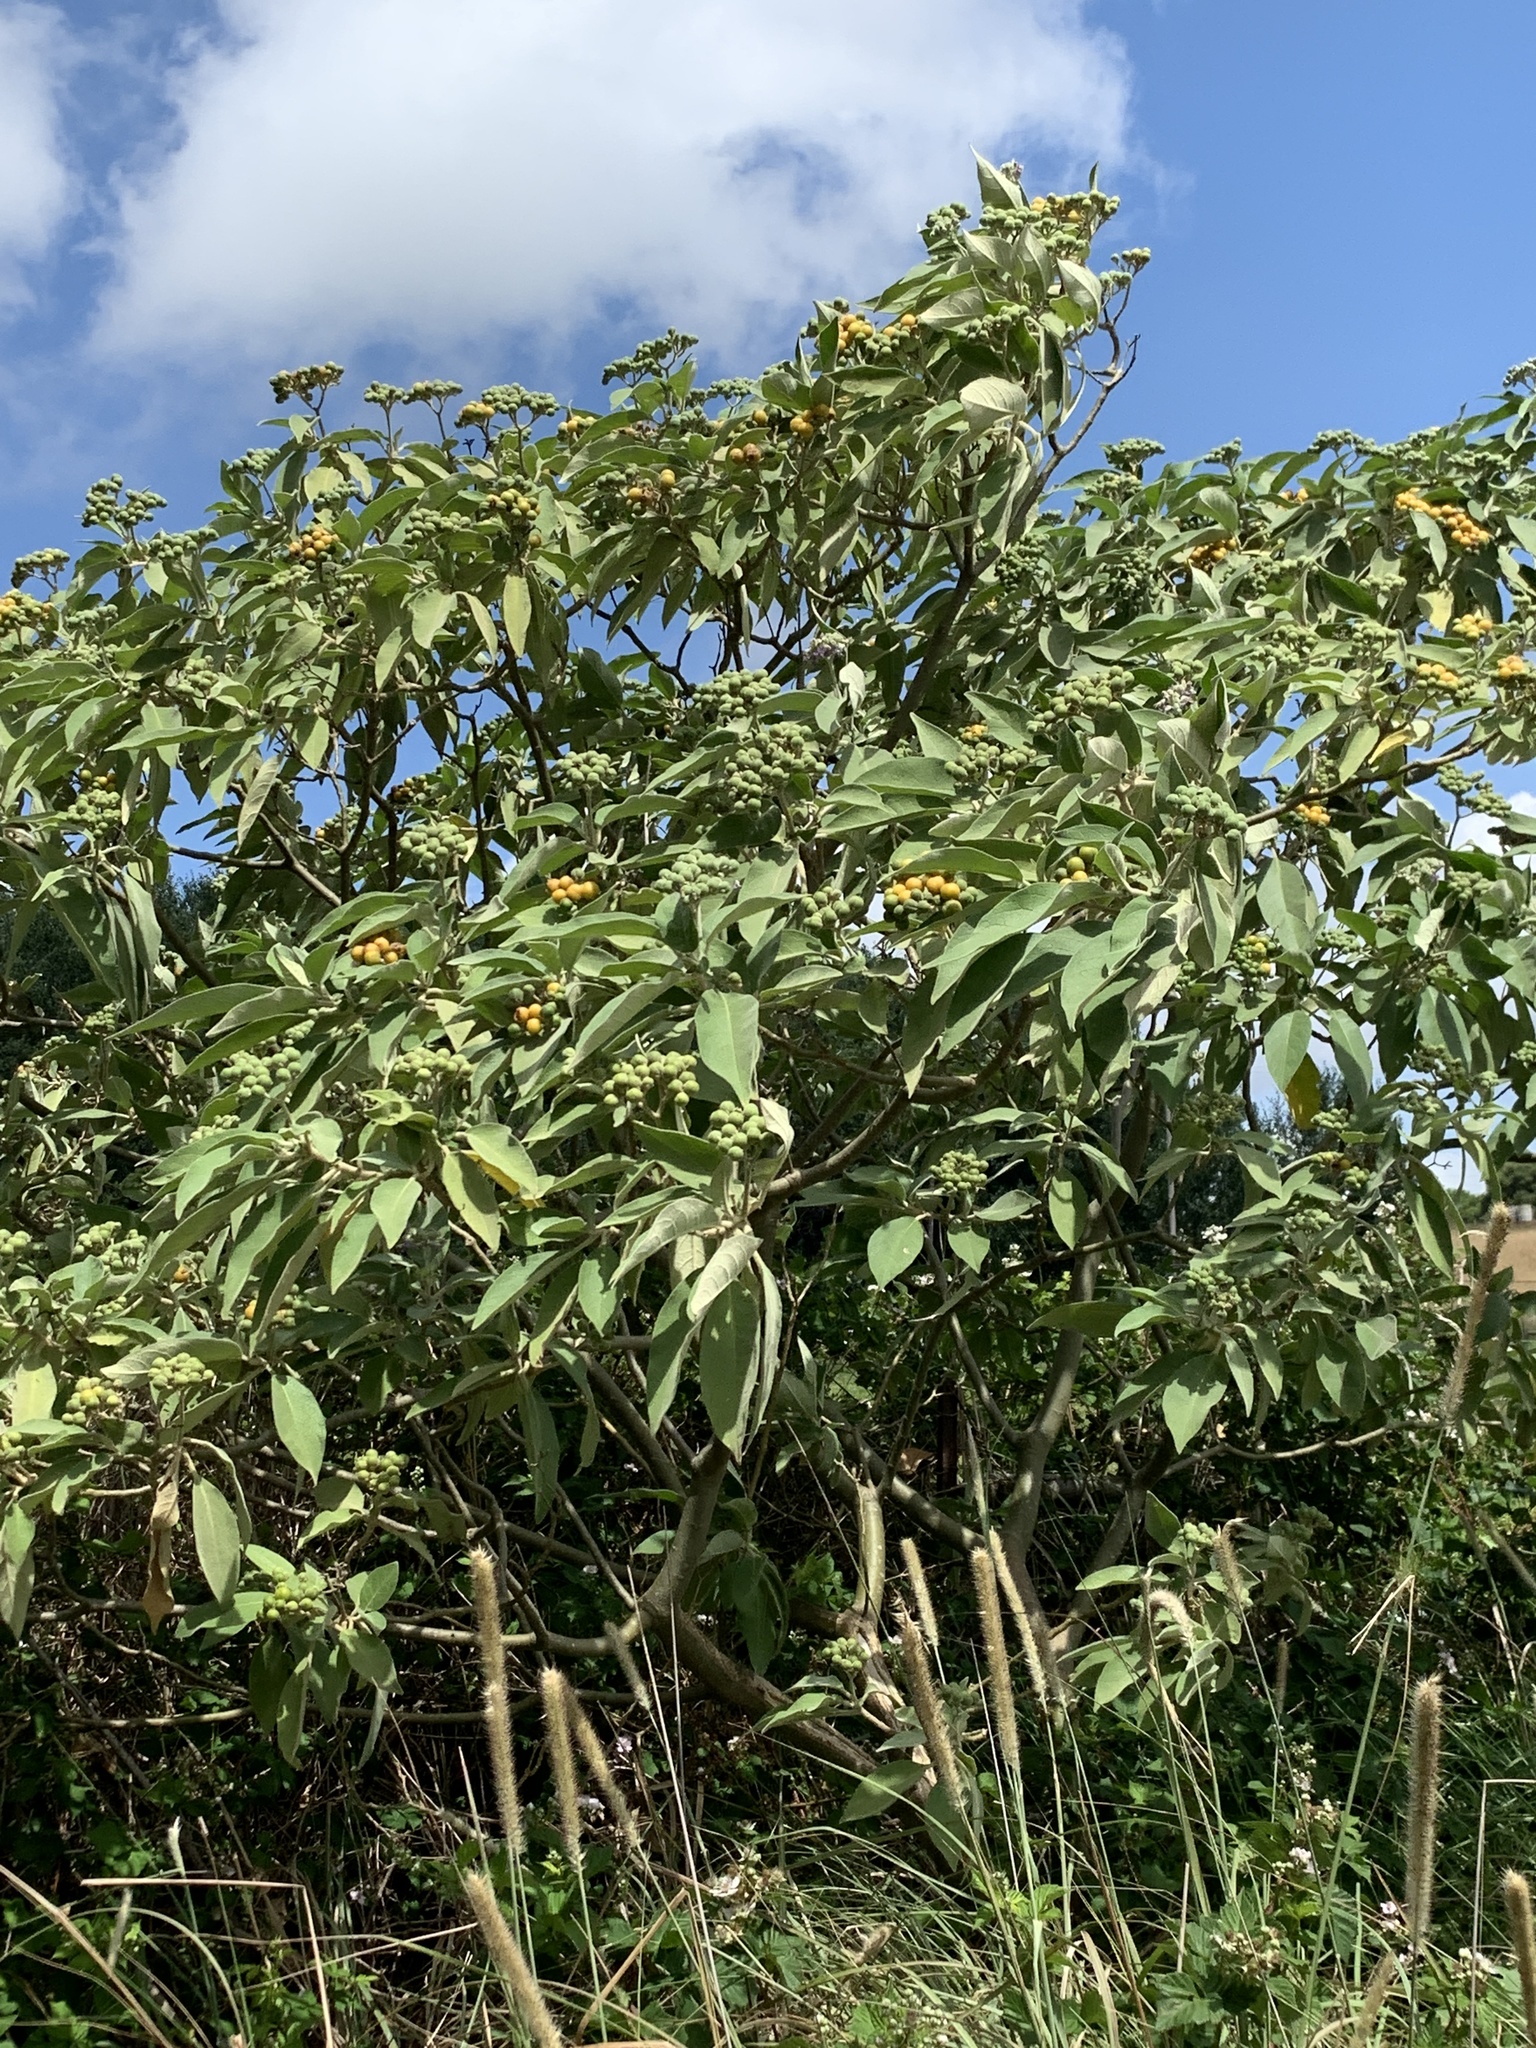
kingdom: Plantae
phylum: Tracheophyta
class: Magnoliopsida
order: Solanales
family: Solanaceae
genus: Solanum
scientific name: Solanum mauritianum
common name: Earleaf nightshade
